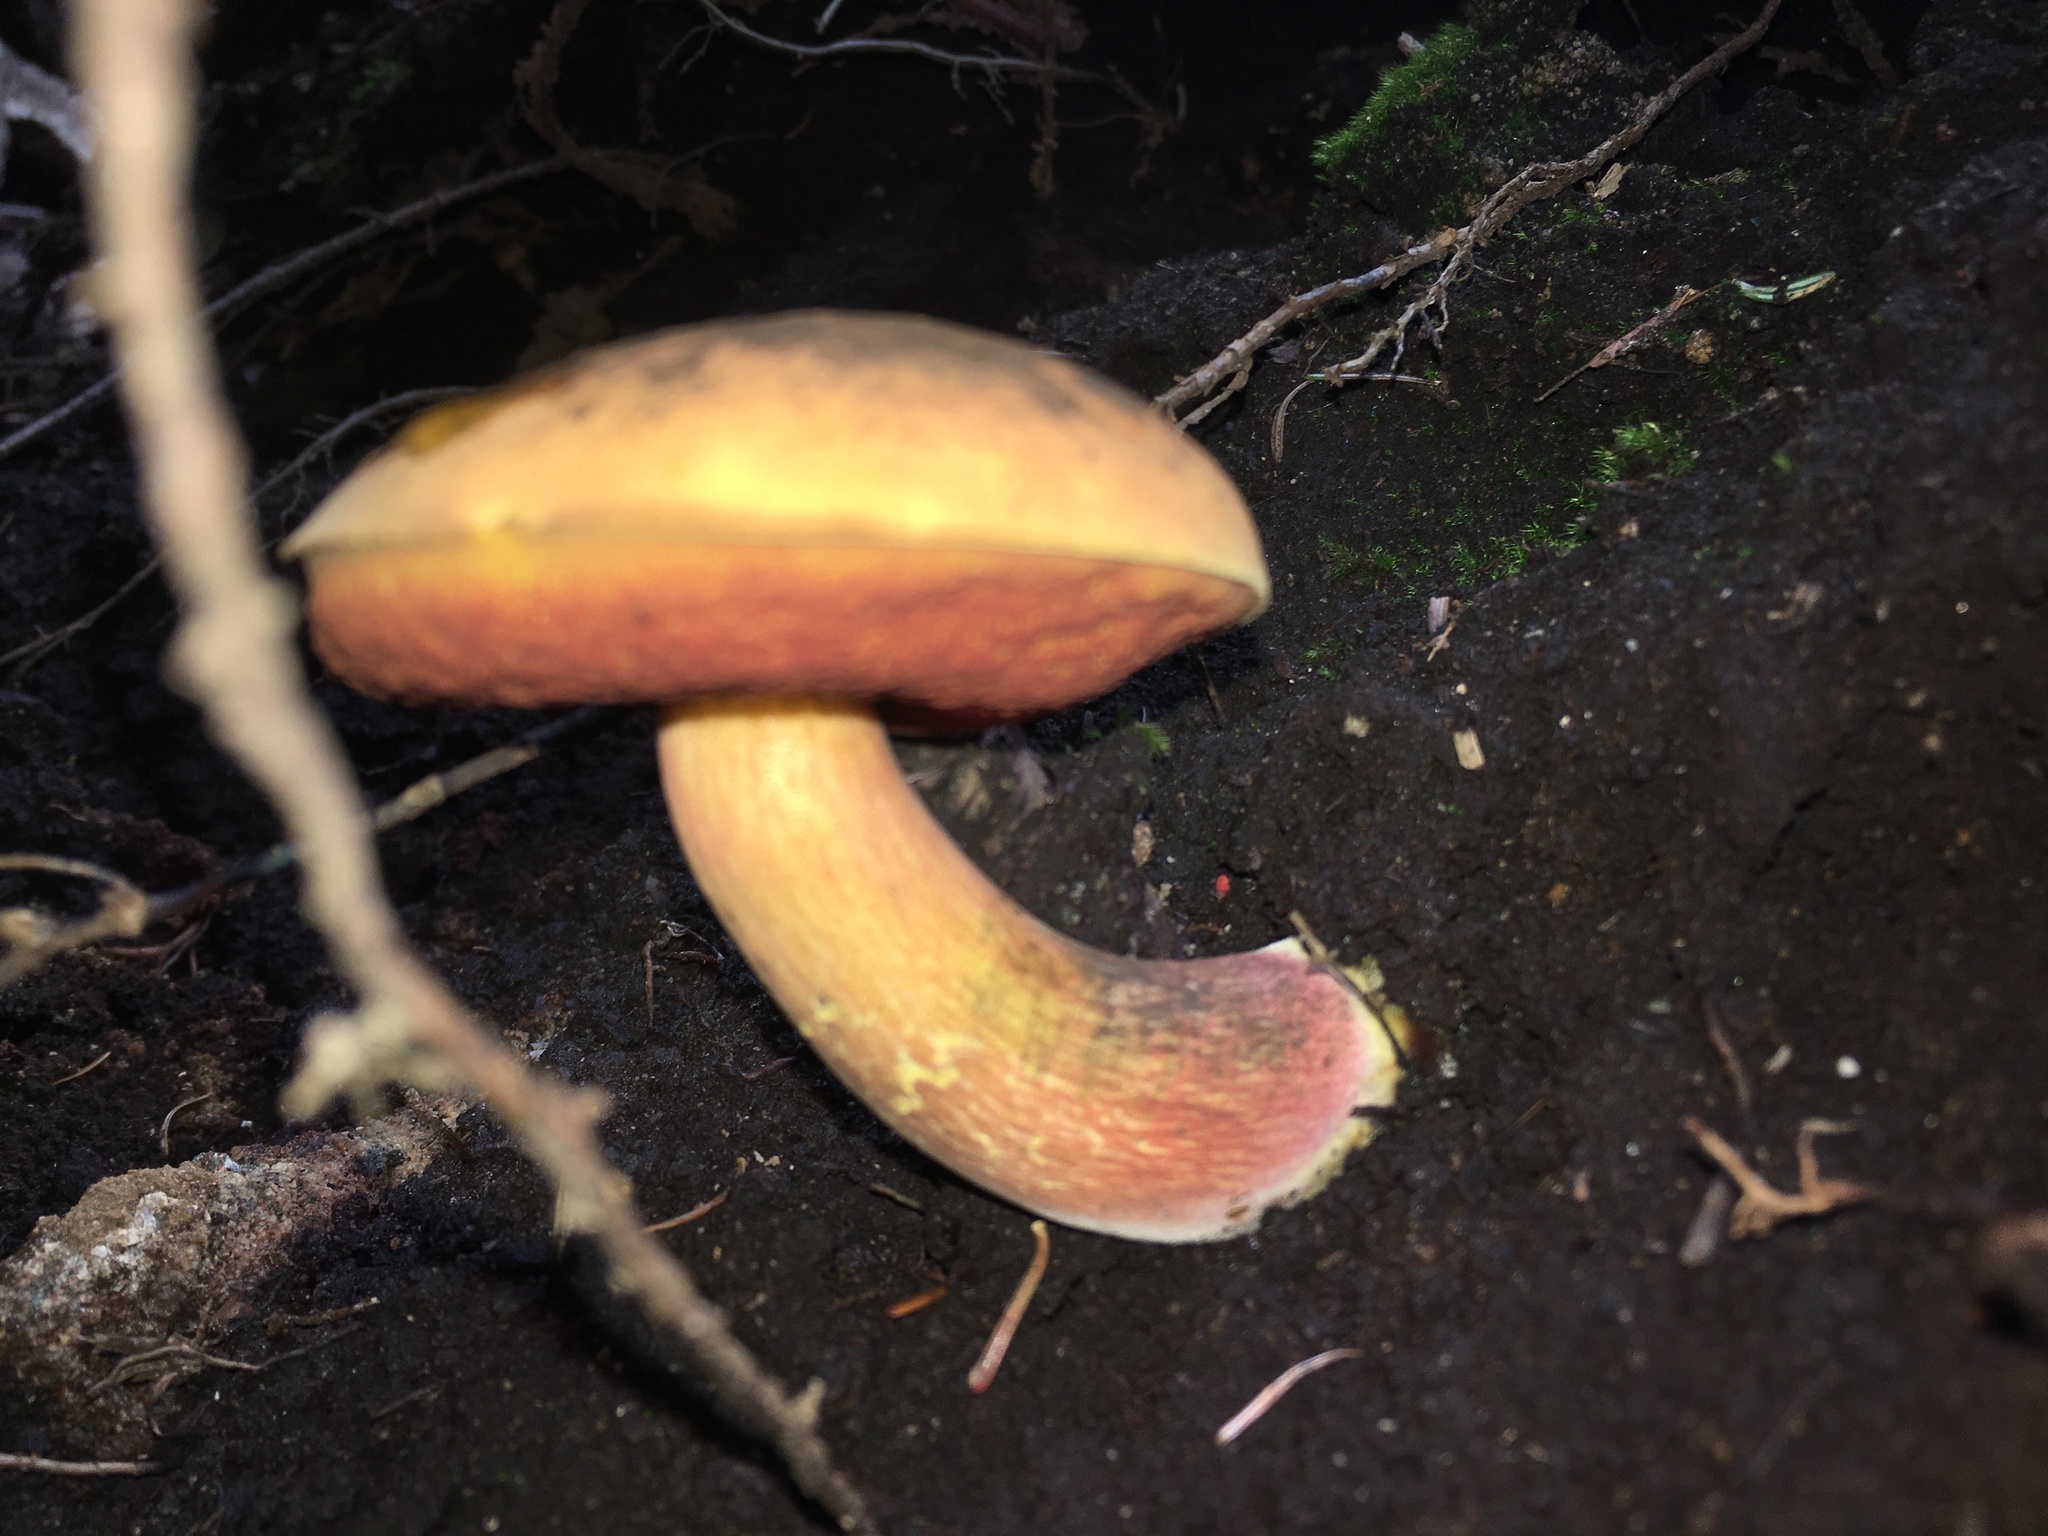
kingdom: Fungi
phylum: Basidiomycota
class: Agaricomycetes
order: Boletales
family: Boletaceae
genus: Boletus
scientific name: Boletus subvelutipes
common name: Red-mouth bolete
